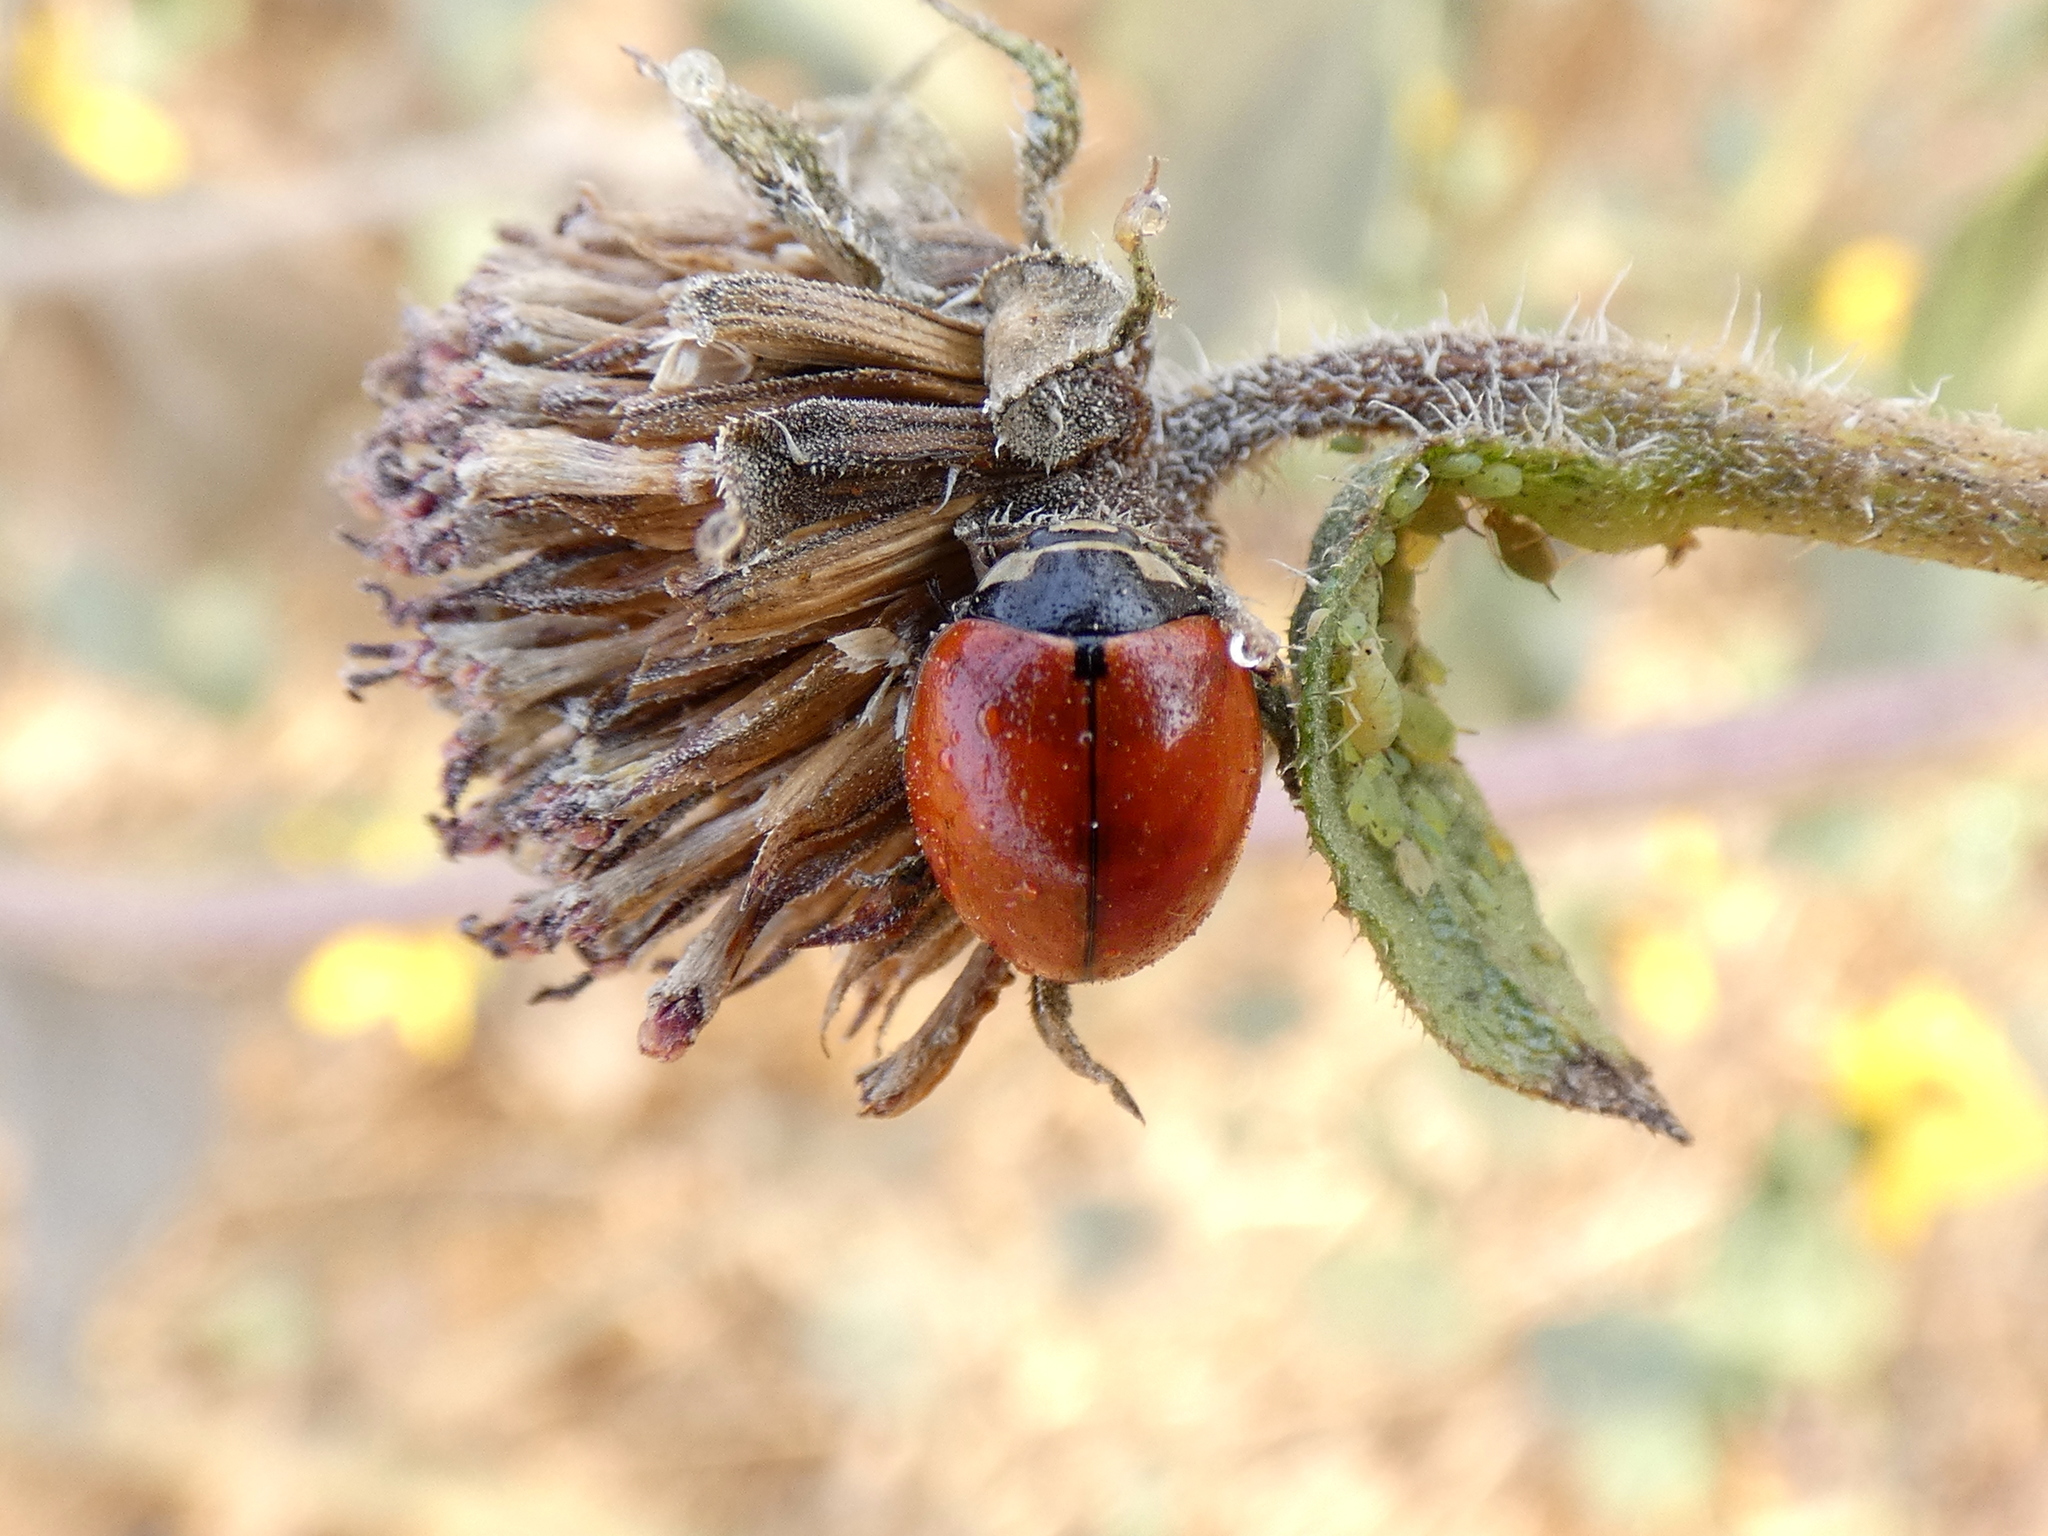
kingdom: Animalia
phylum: Arthropoda
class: Insecta
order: Coleoptera
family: Coccinellidae
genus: Coccinella
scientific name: Coccinella novemnotata
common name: Nine-spotted lady beetle
